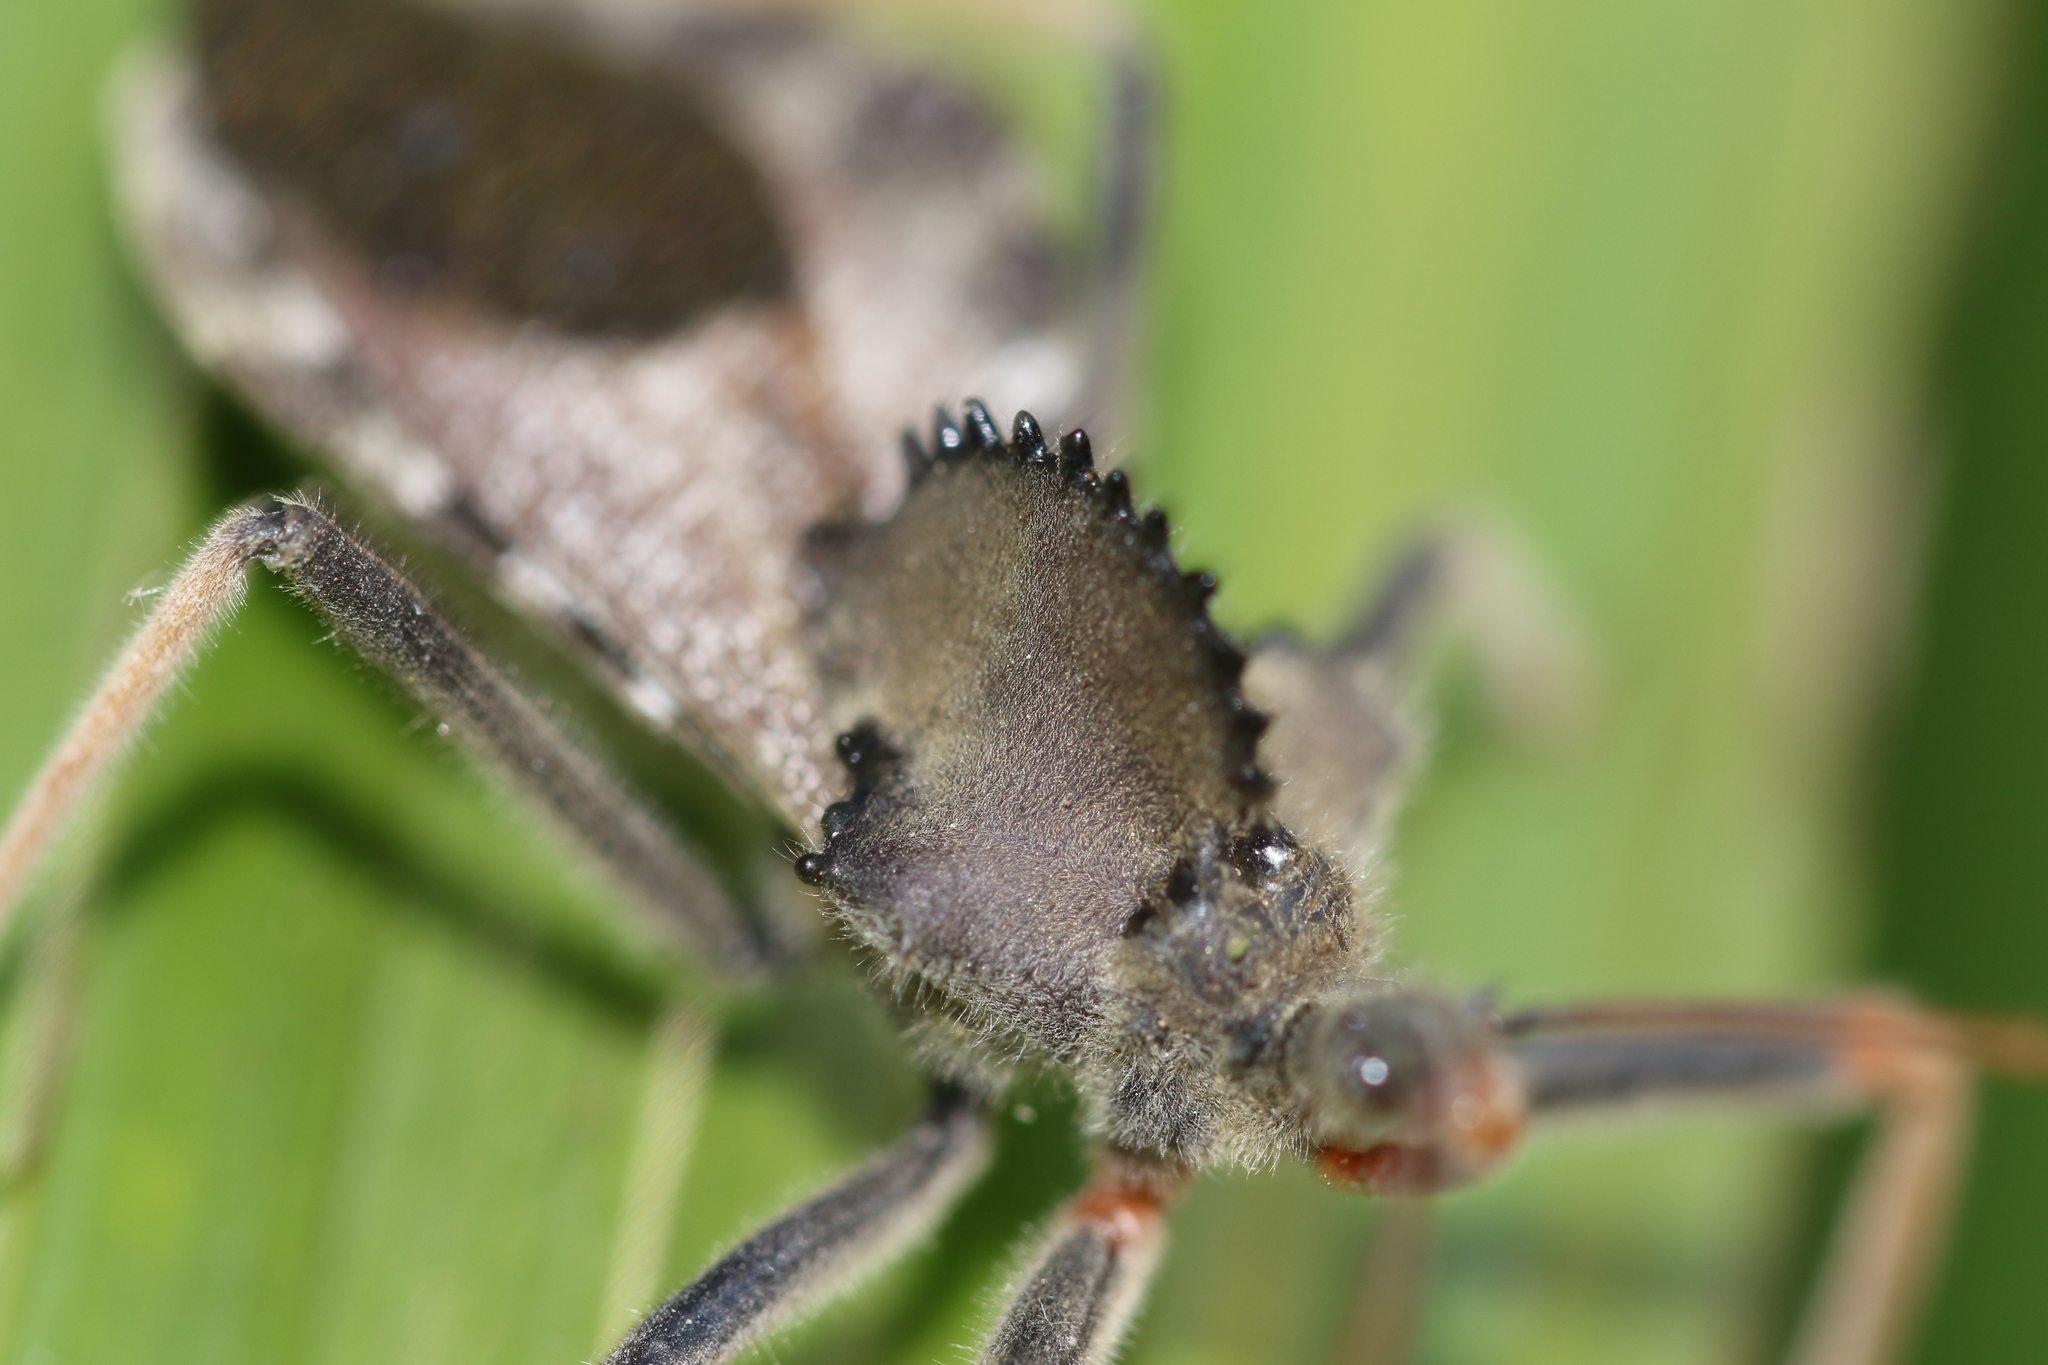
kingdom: Animalia
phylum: Arthropoda
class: Insecta
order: Hemiptera
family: Reduviidae
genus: Arilus
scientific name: Arilus carinatus
